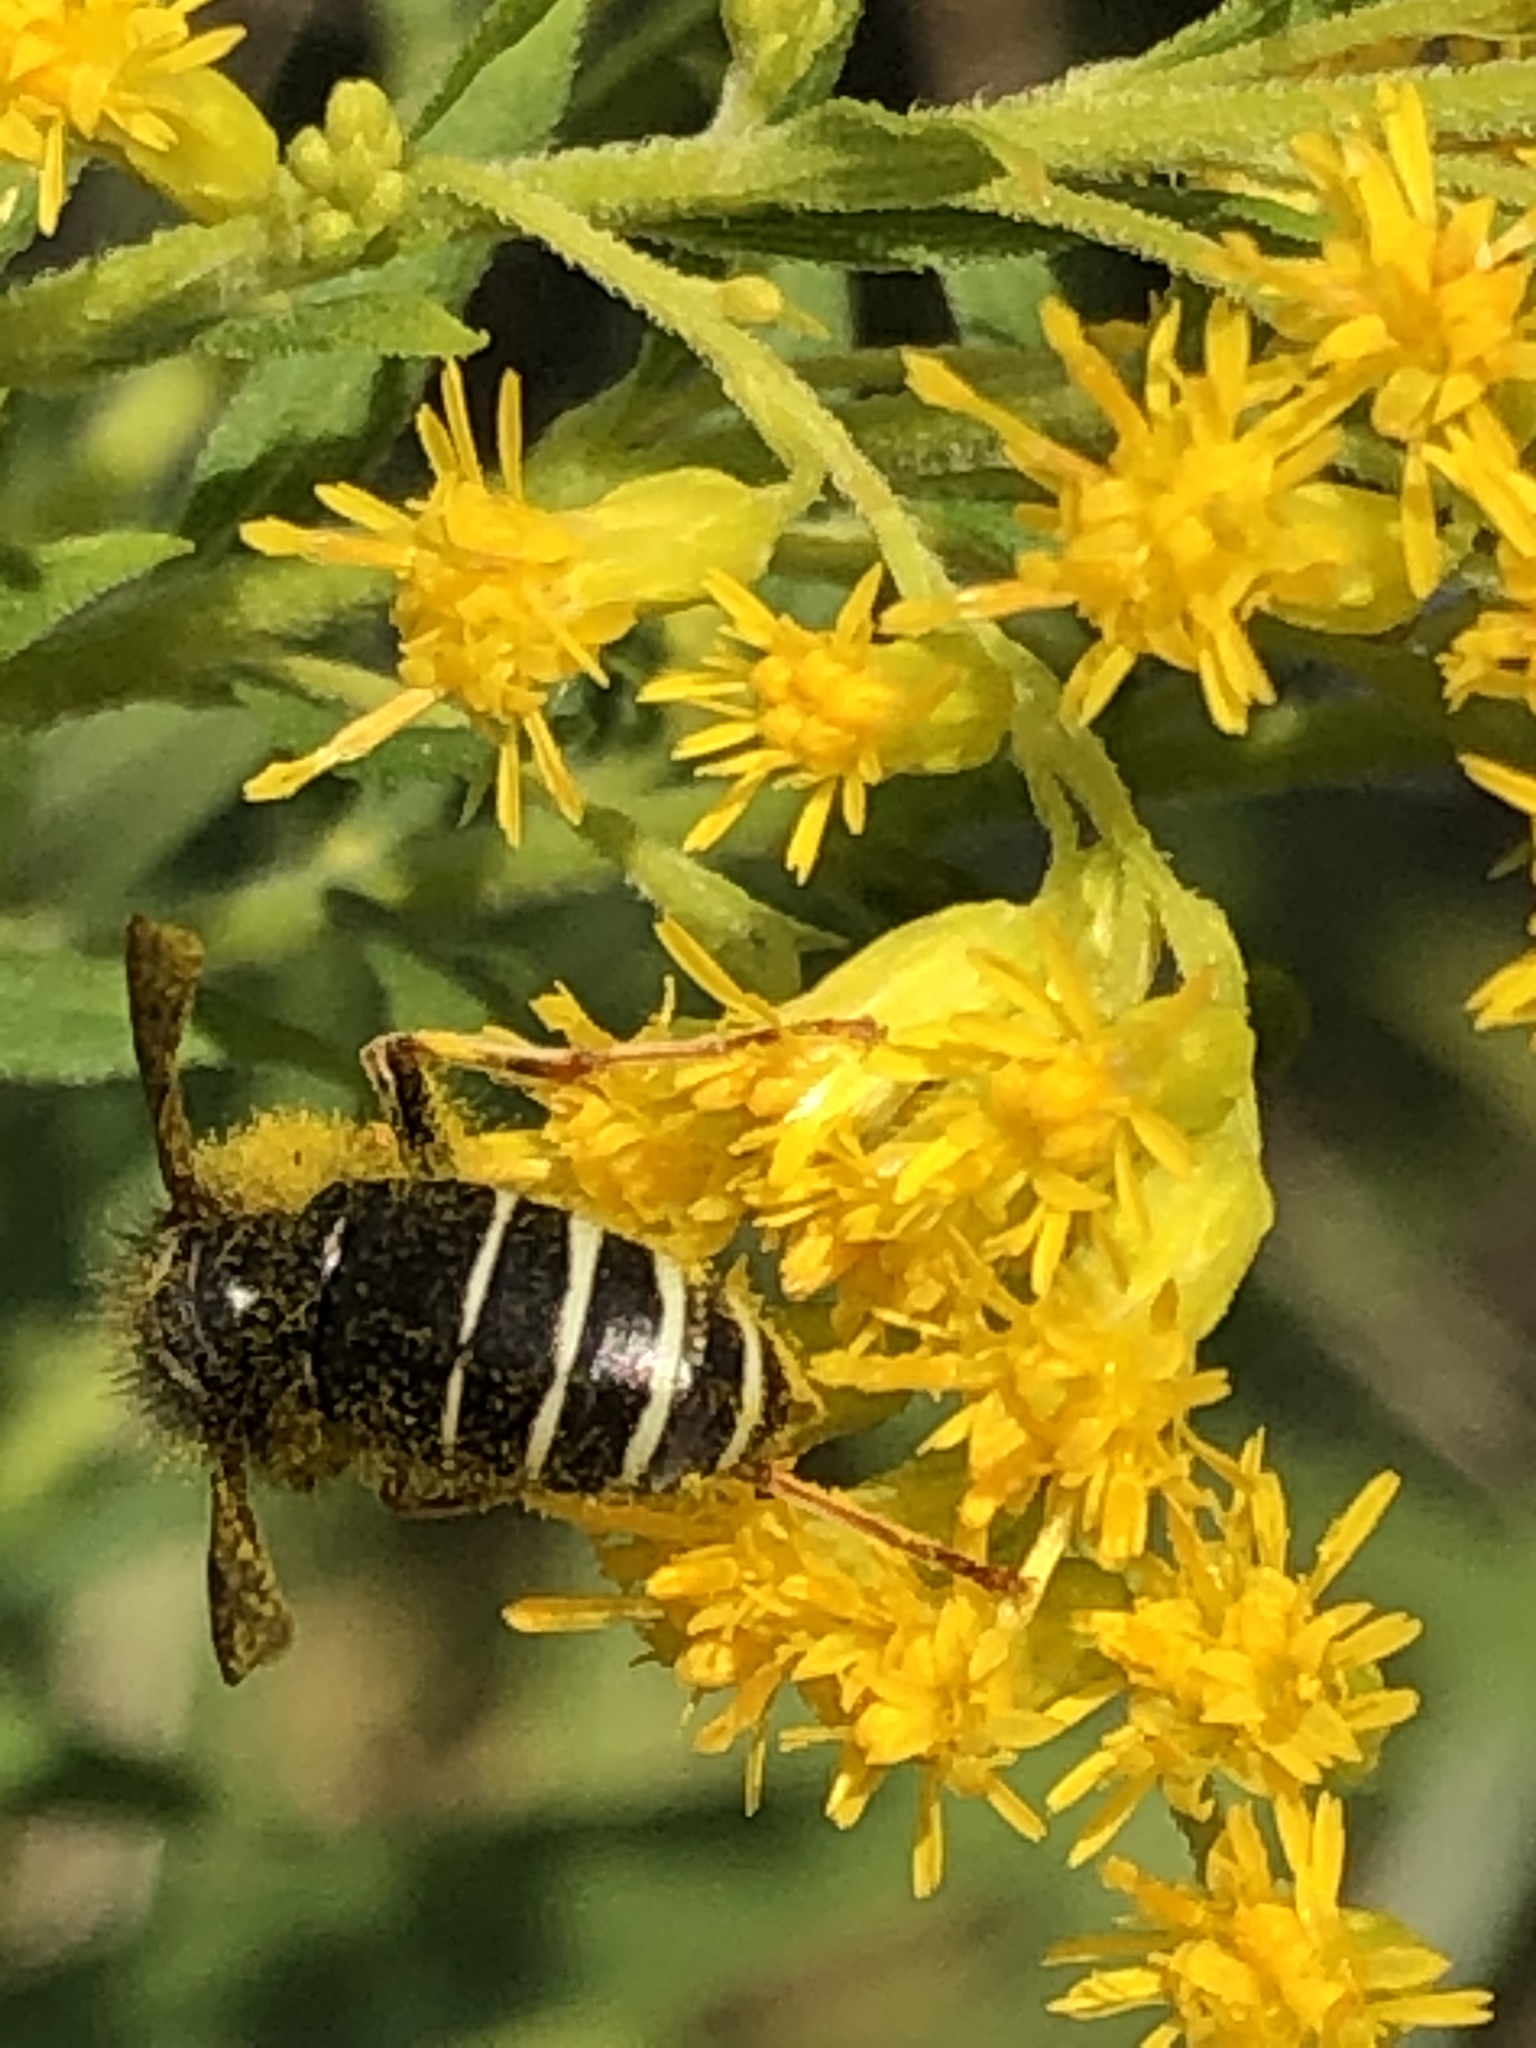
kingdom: Animalia
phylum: Arthropoda
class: Insecta
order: Hymenoptera
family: Vespidae
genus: Vespula
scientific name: Vespula consobrina
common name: Blackjacket
